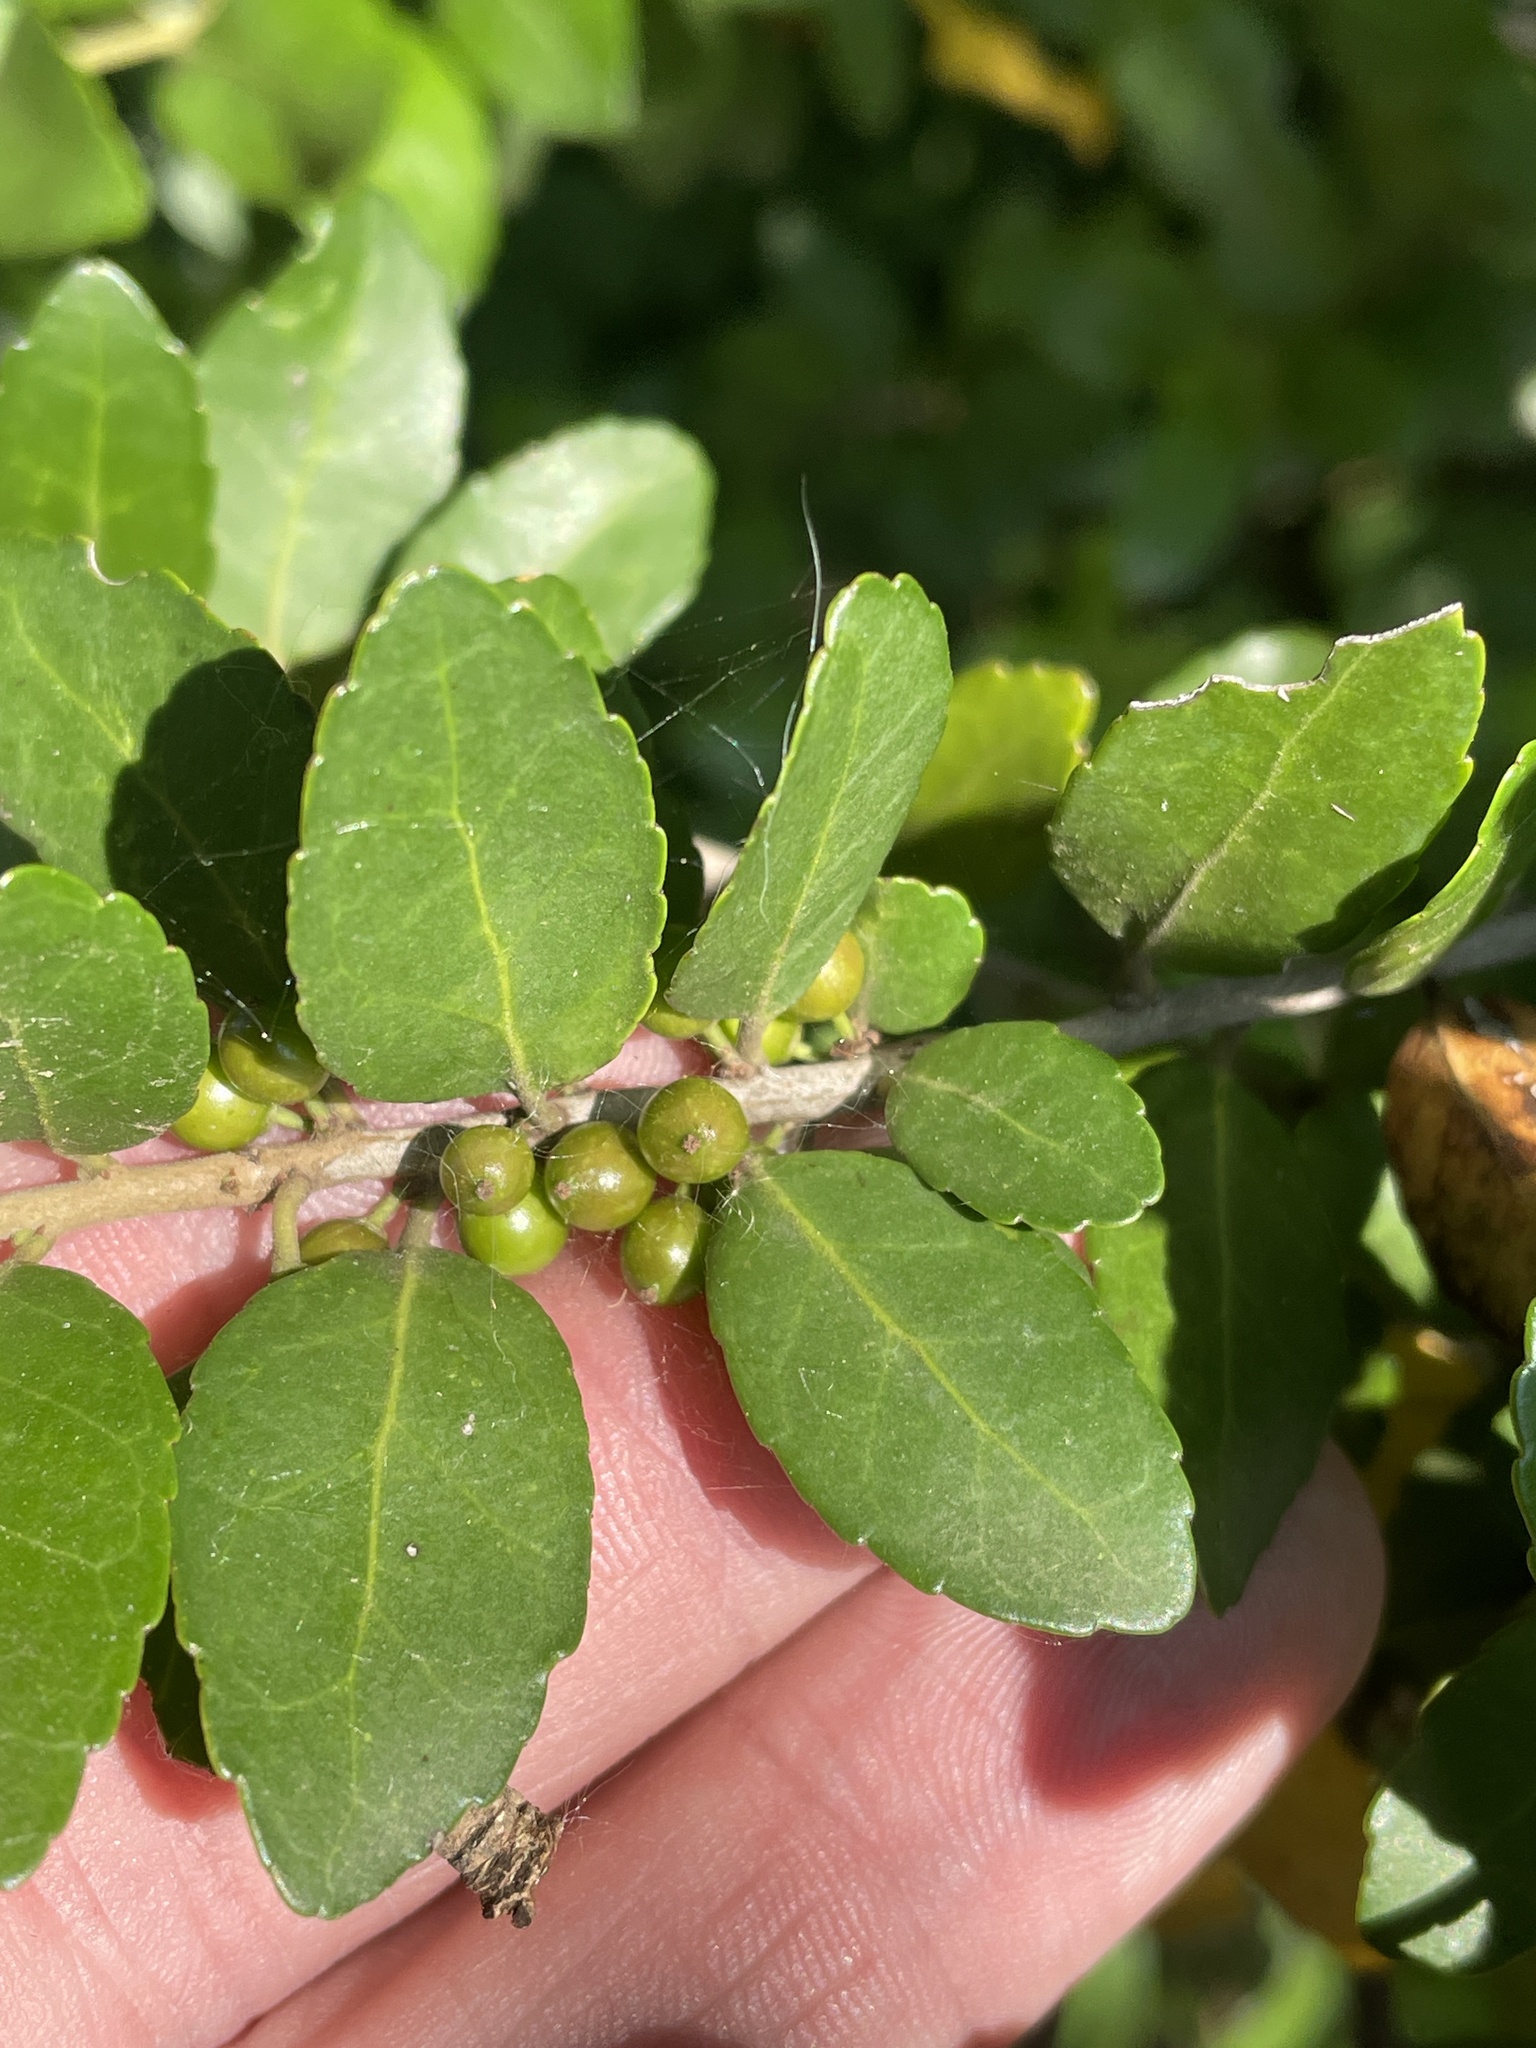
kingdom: Plantae
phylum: Tracheophyta
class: Magnoliopsida
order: Aquifoliales
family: Aquifoliaceae
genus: Ilex
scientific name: Ilex vomitoria
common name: Yaupon holly
